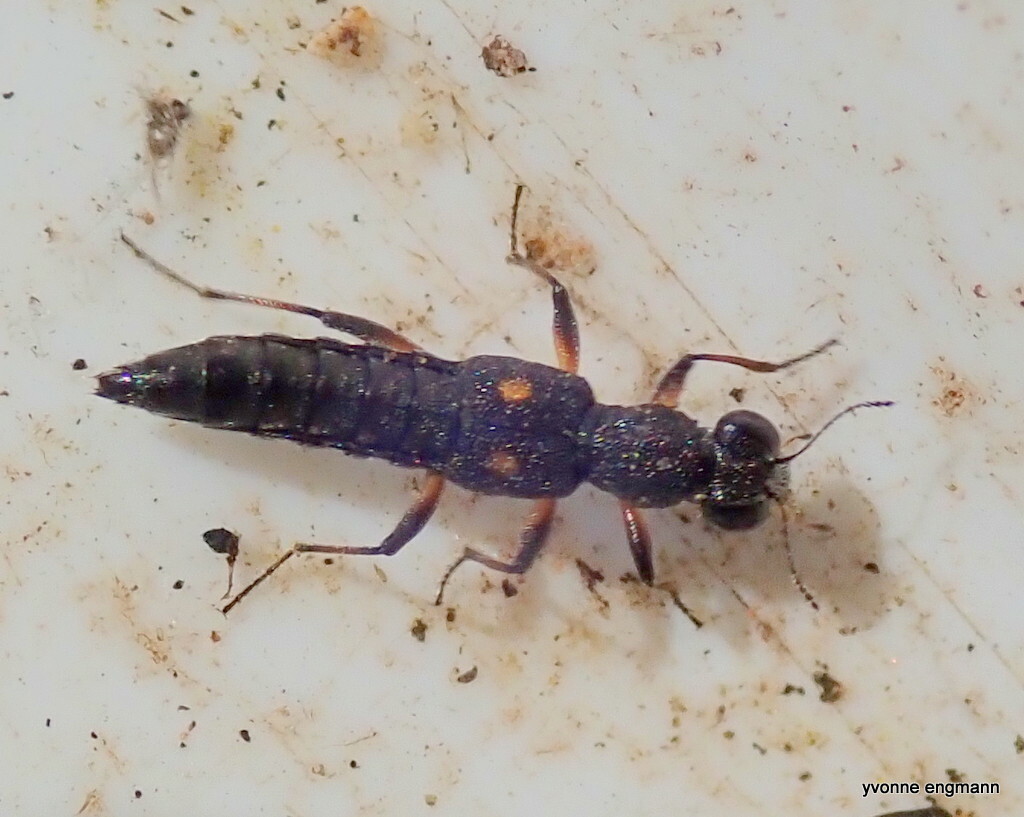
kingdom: Animalia
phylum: Arthropoda
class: Insecta
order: Coleoptera
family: Staphylinidae
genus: Stenus
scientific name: Stenus bimaculatus
